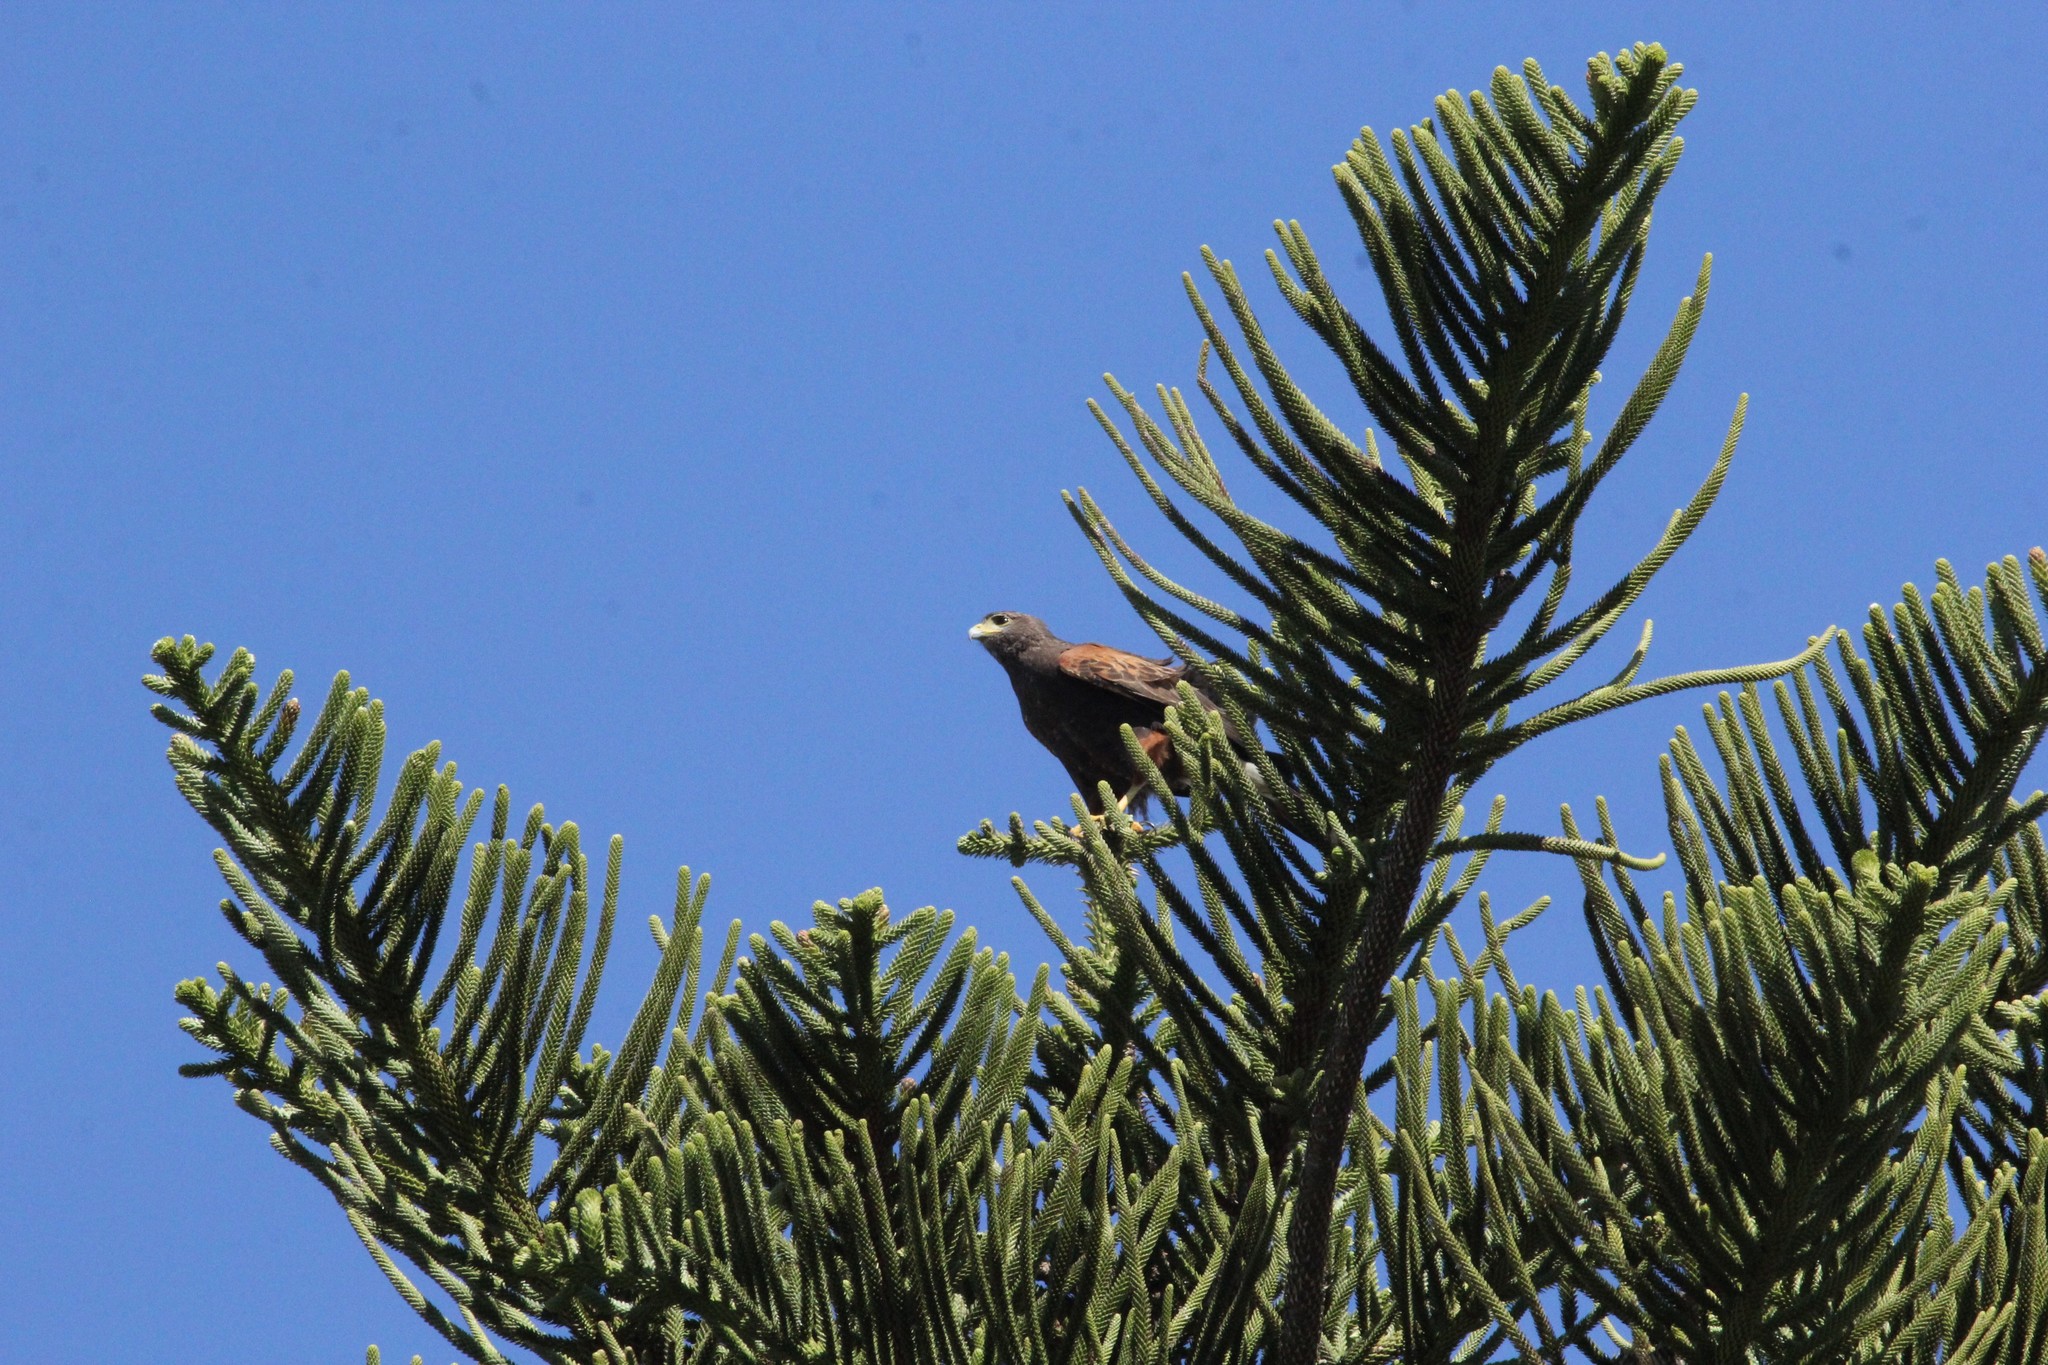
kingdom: Animalia
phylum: Chordata
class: Aves
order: Accipitriformes
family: Accipitridae
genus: Parabuteo
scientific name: Parabuteo unicinctus
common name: Harris's hawk
